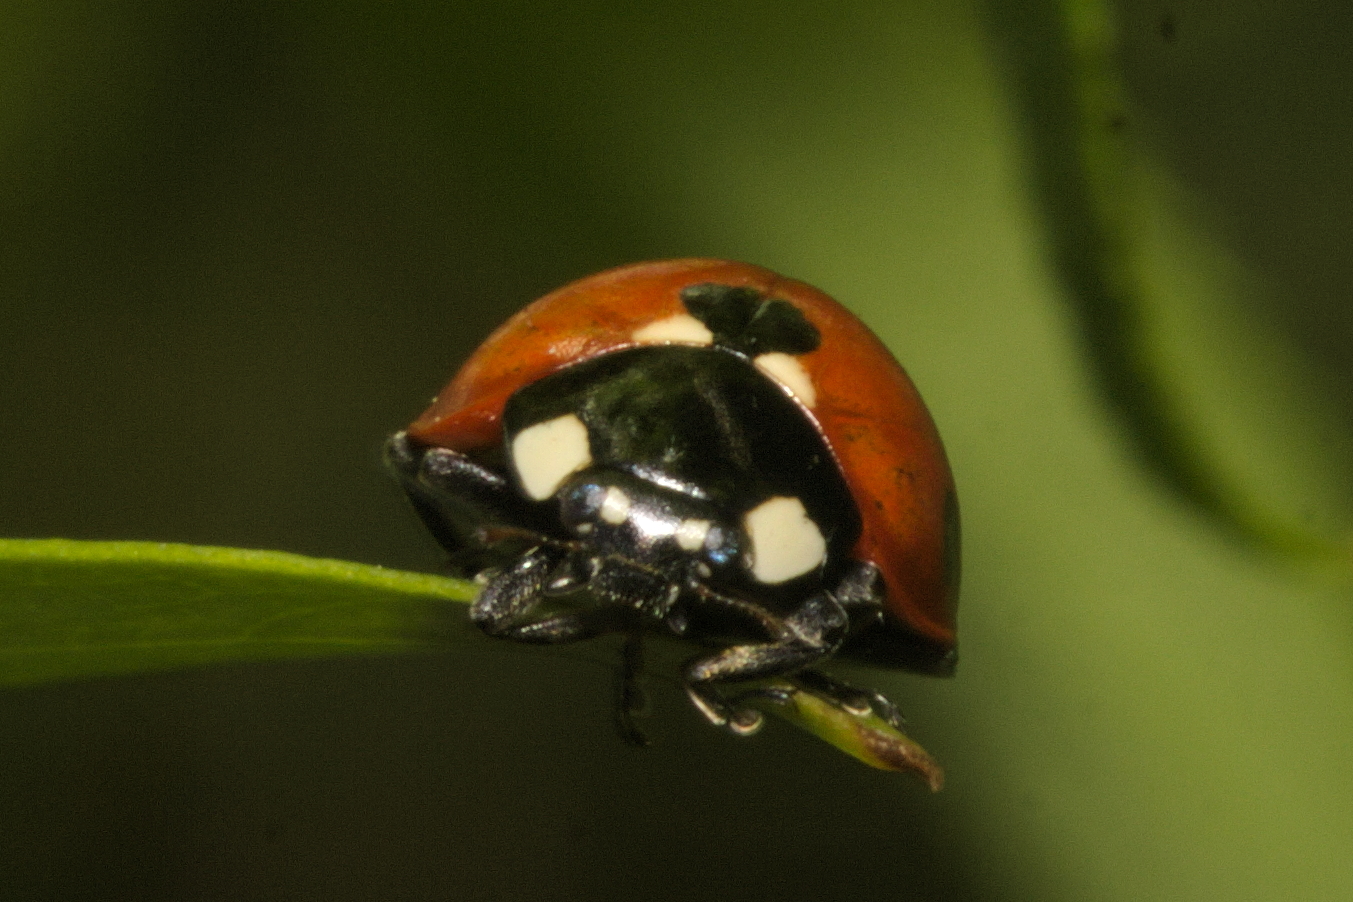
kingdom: Animalia
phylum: Arthropoda
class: Insecta
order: Coleoptera
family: Coccinellidae
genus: Coccinella
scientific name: Coccinella septempunctata
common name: Sevenspotted lady beetle
